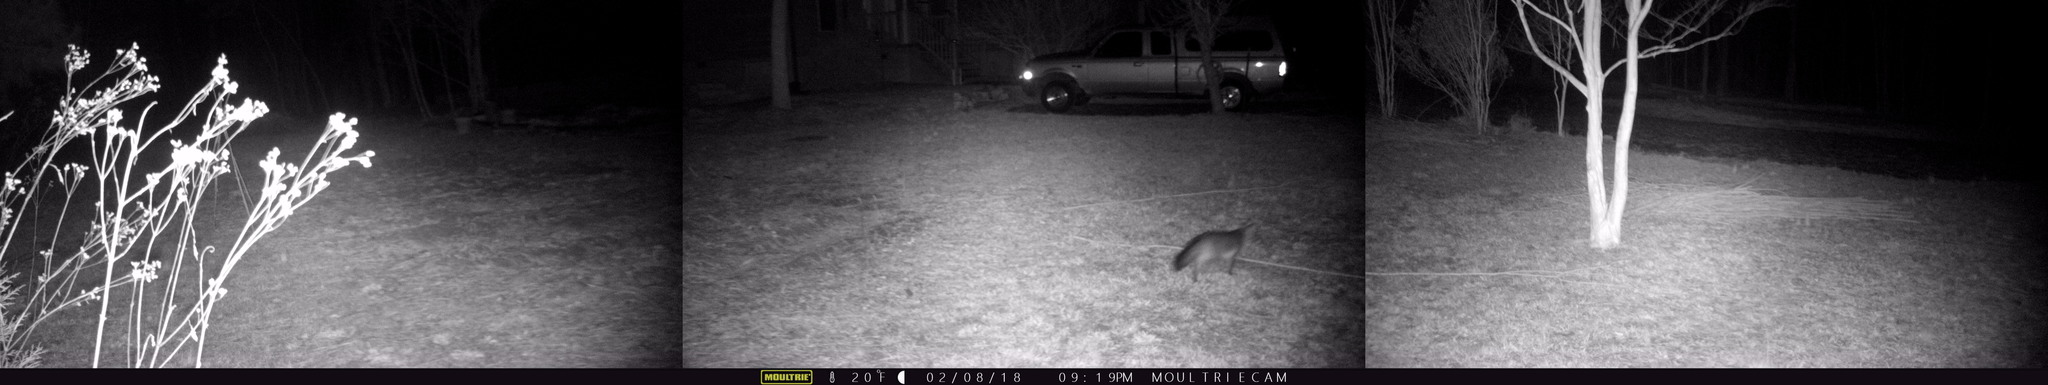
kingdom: Animalia
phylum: Chordata
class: Mammalia
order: Carnivora
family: Canidae
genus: Urocyon
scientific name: Urocyon cinereoargenteus
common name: Gray fox
